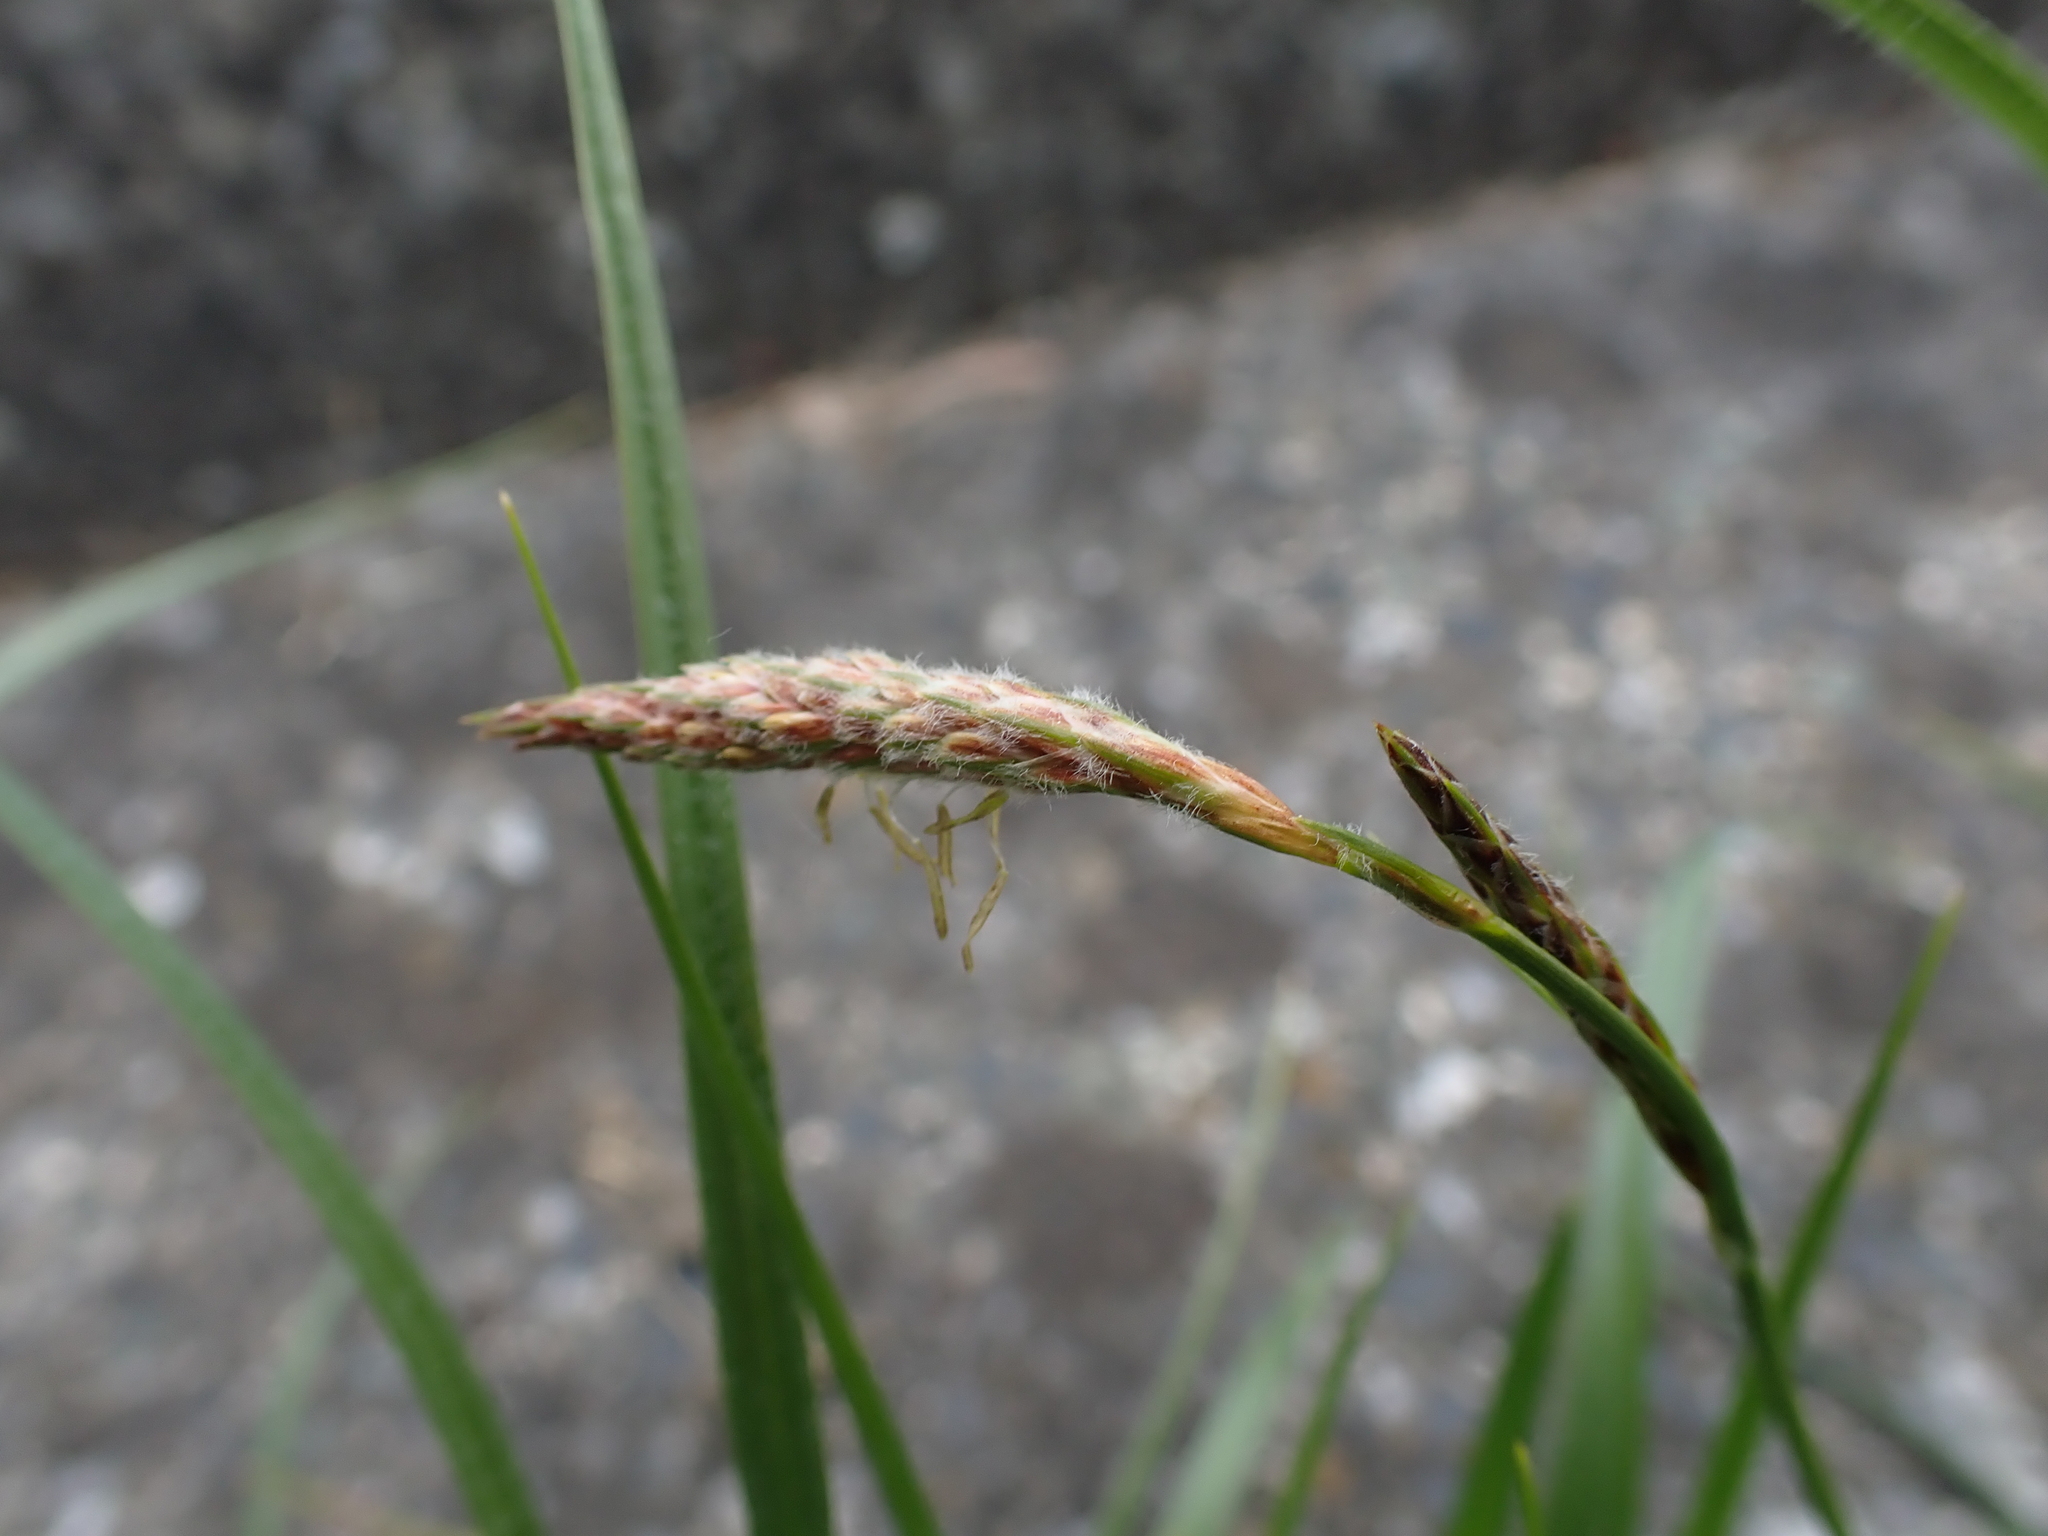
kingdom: Plantae
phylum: Tracheophyta
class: Liliopsida
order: Poales
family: Cyperaceae
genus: Carex
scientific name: Carex hirta
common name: Hairy sedge
